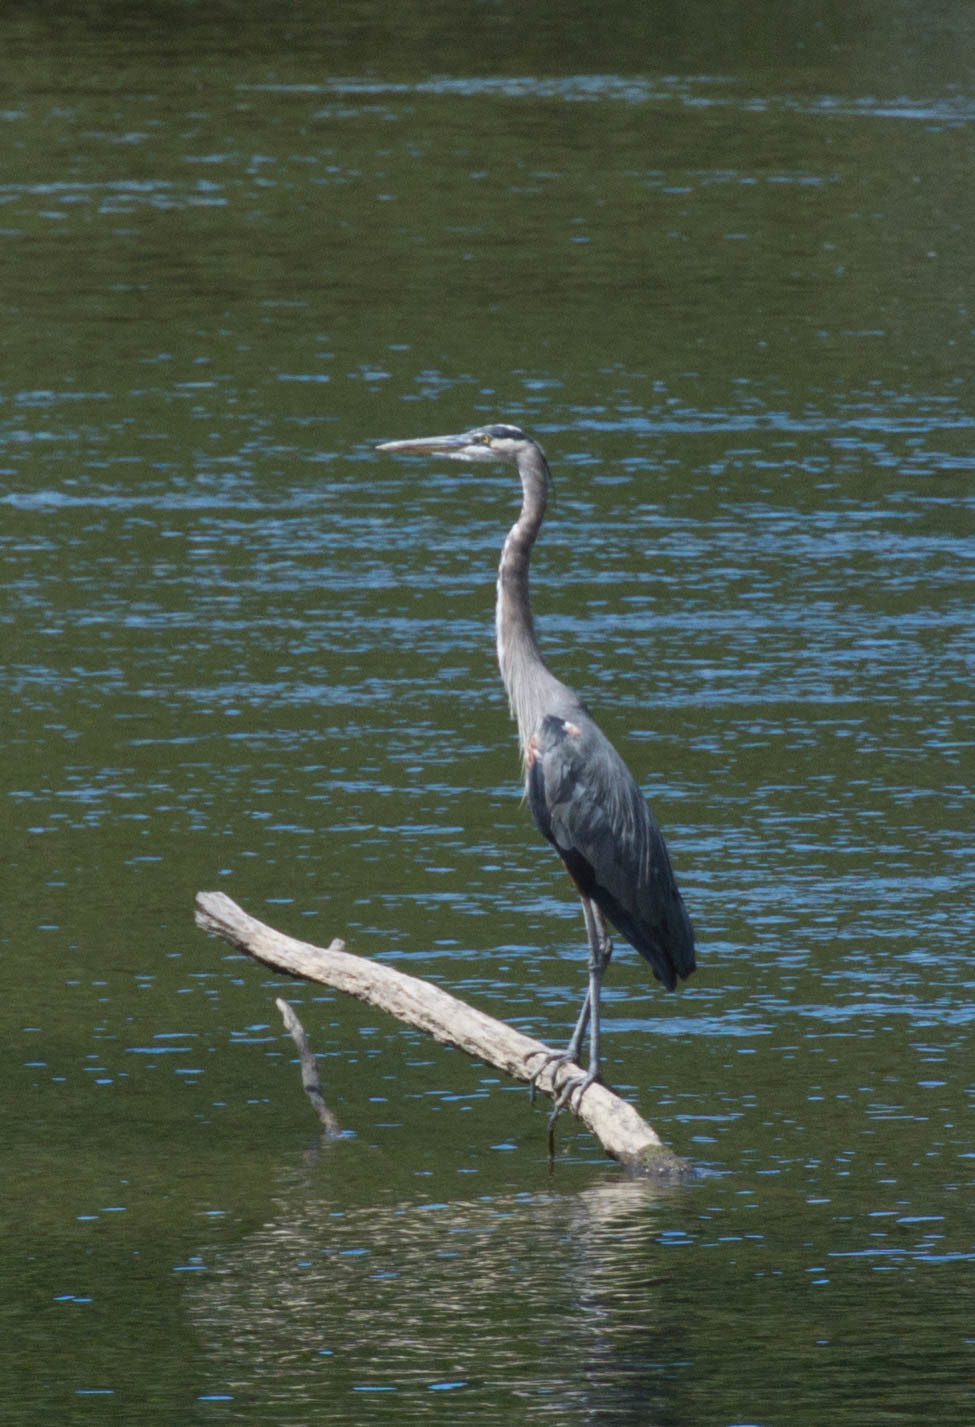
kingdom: Animalia
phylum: Chordata
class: Aves
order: Pelecaniformes
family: Ardeidae
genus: Ardea
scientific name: Ardea herodias
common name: Great blue heron
